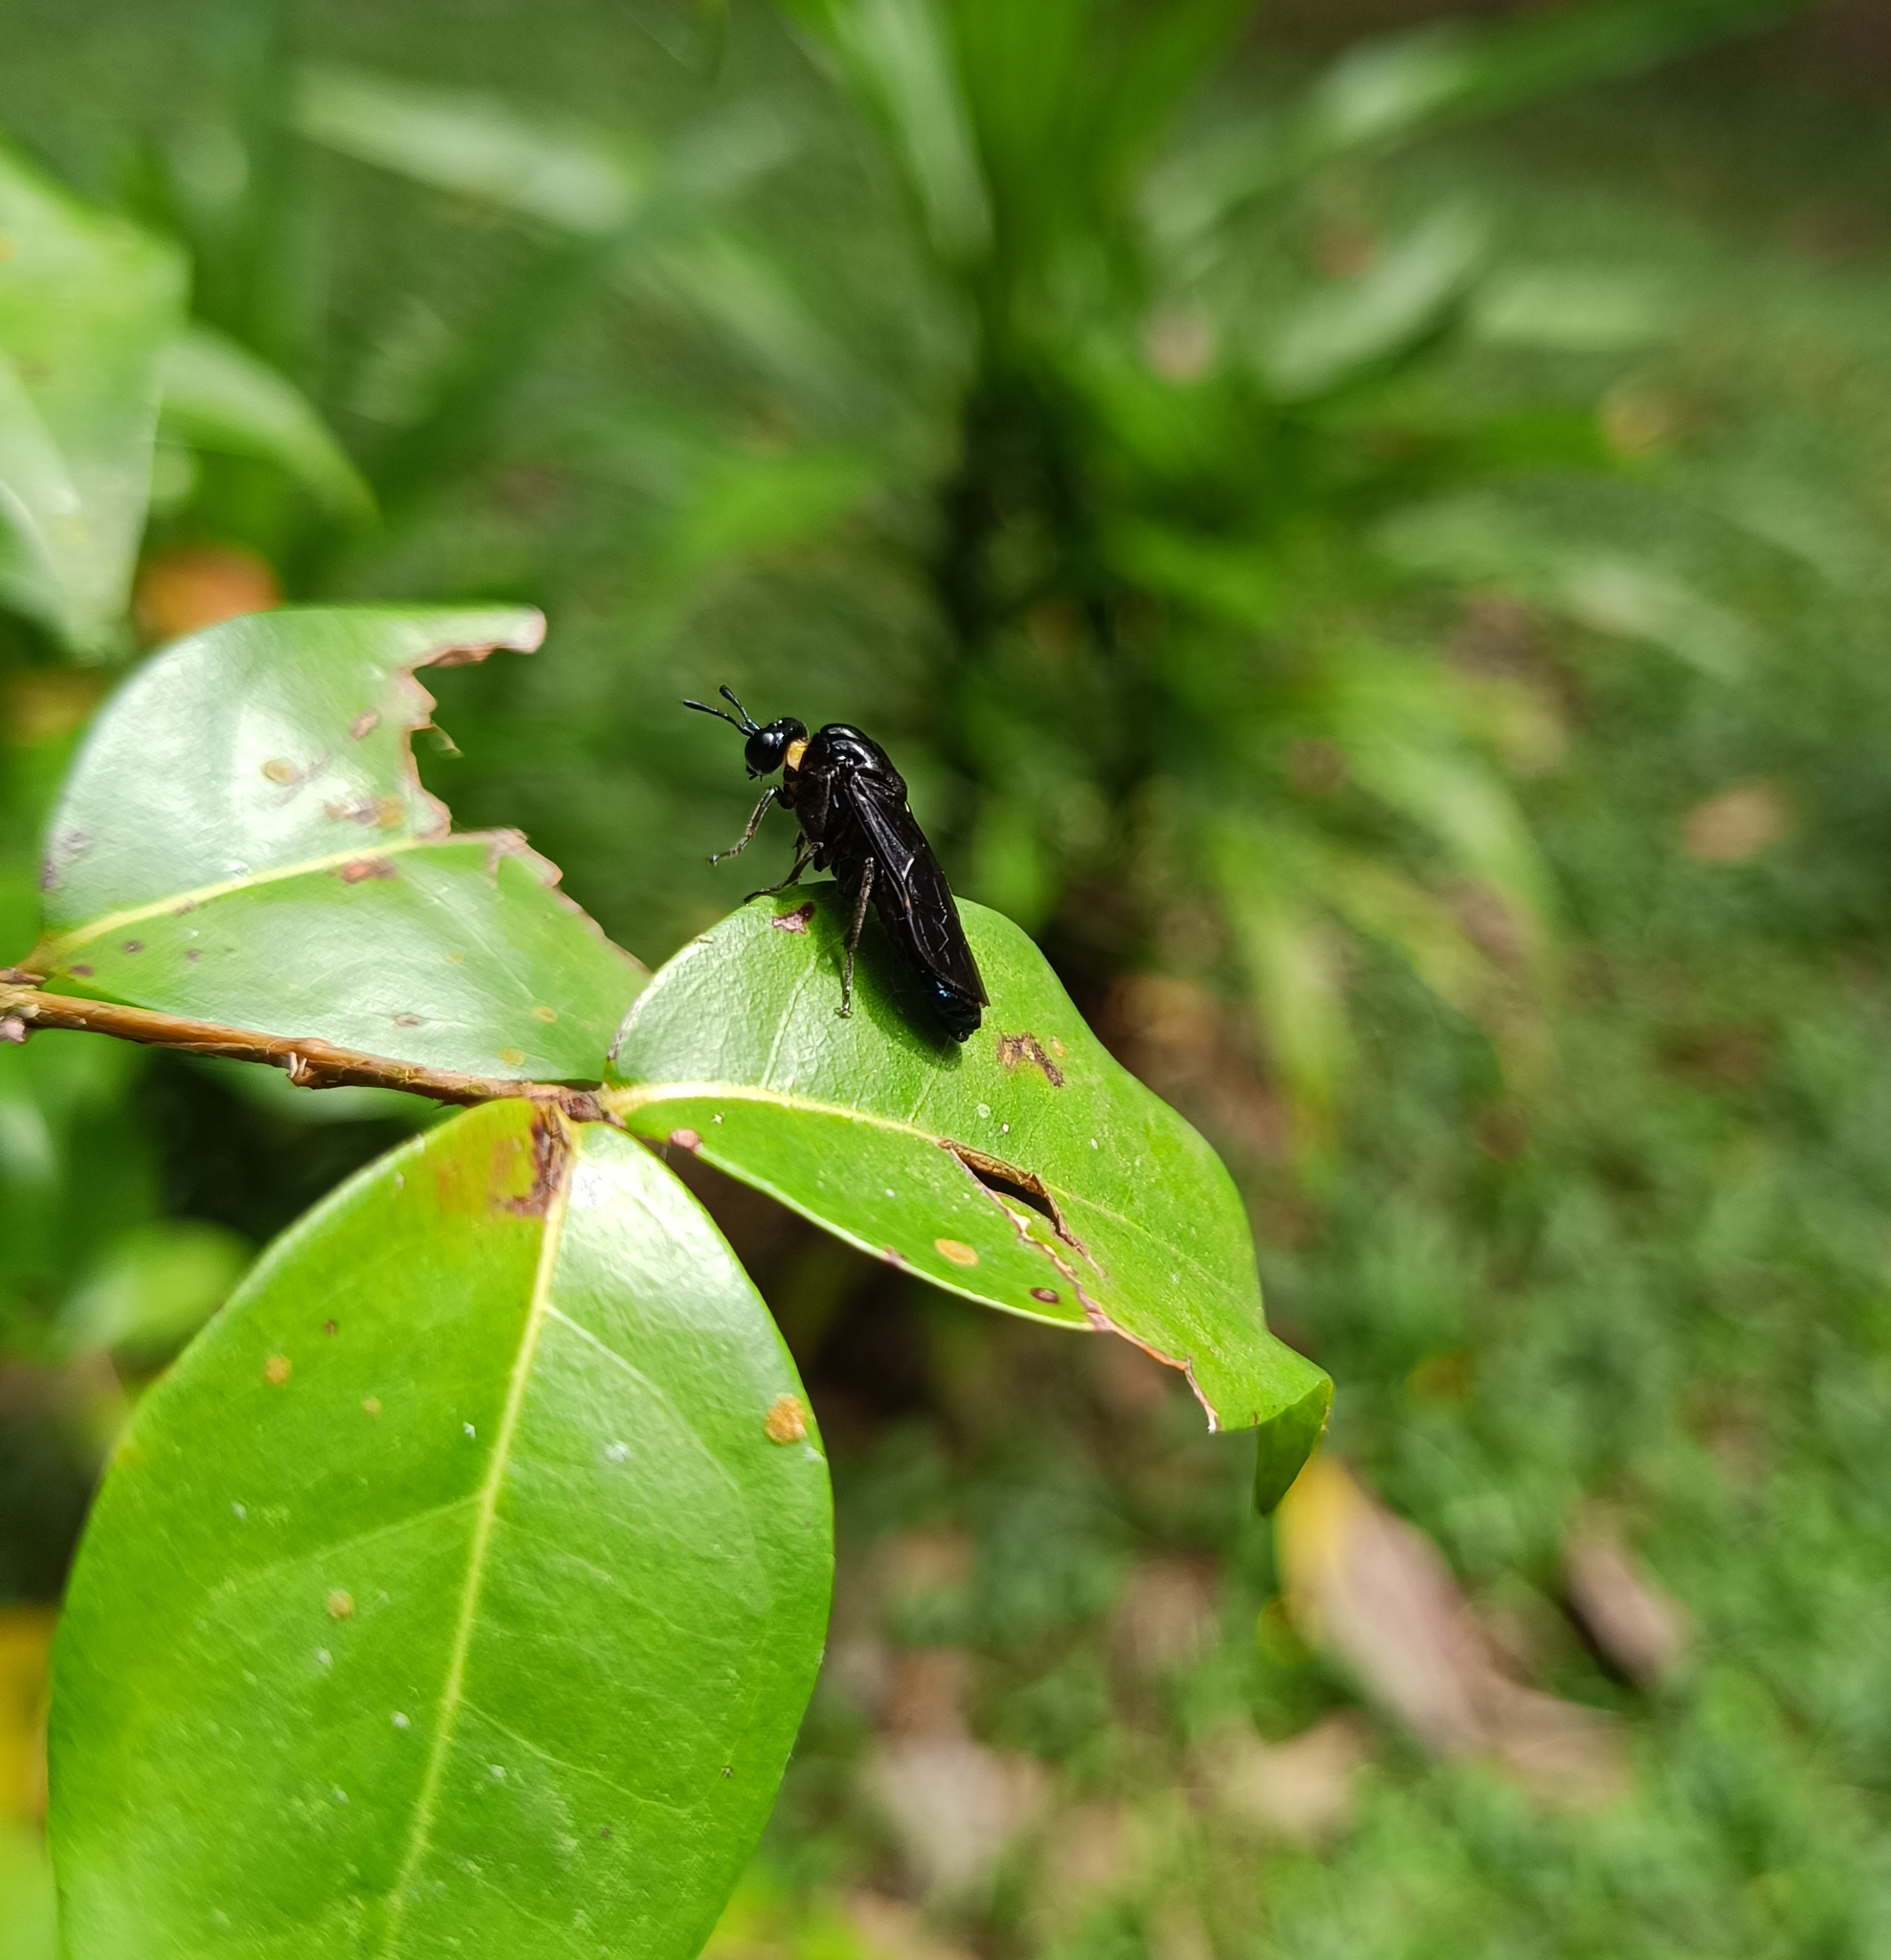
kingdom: Animalia
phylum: Arthropoda
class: Insecta
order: Hymenoptera
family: Cimbicidae
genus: Pachylosticta
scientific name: Pachylosticta violacea
